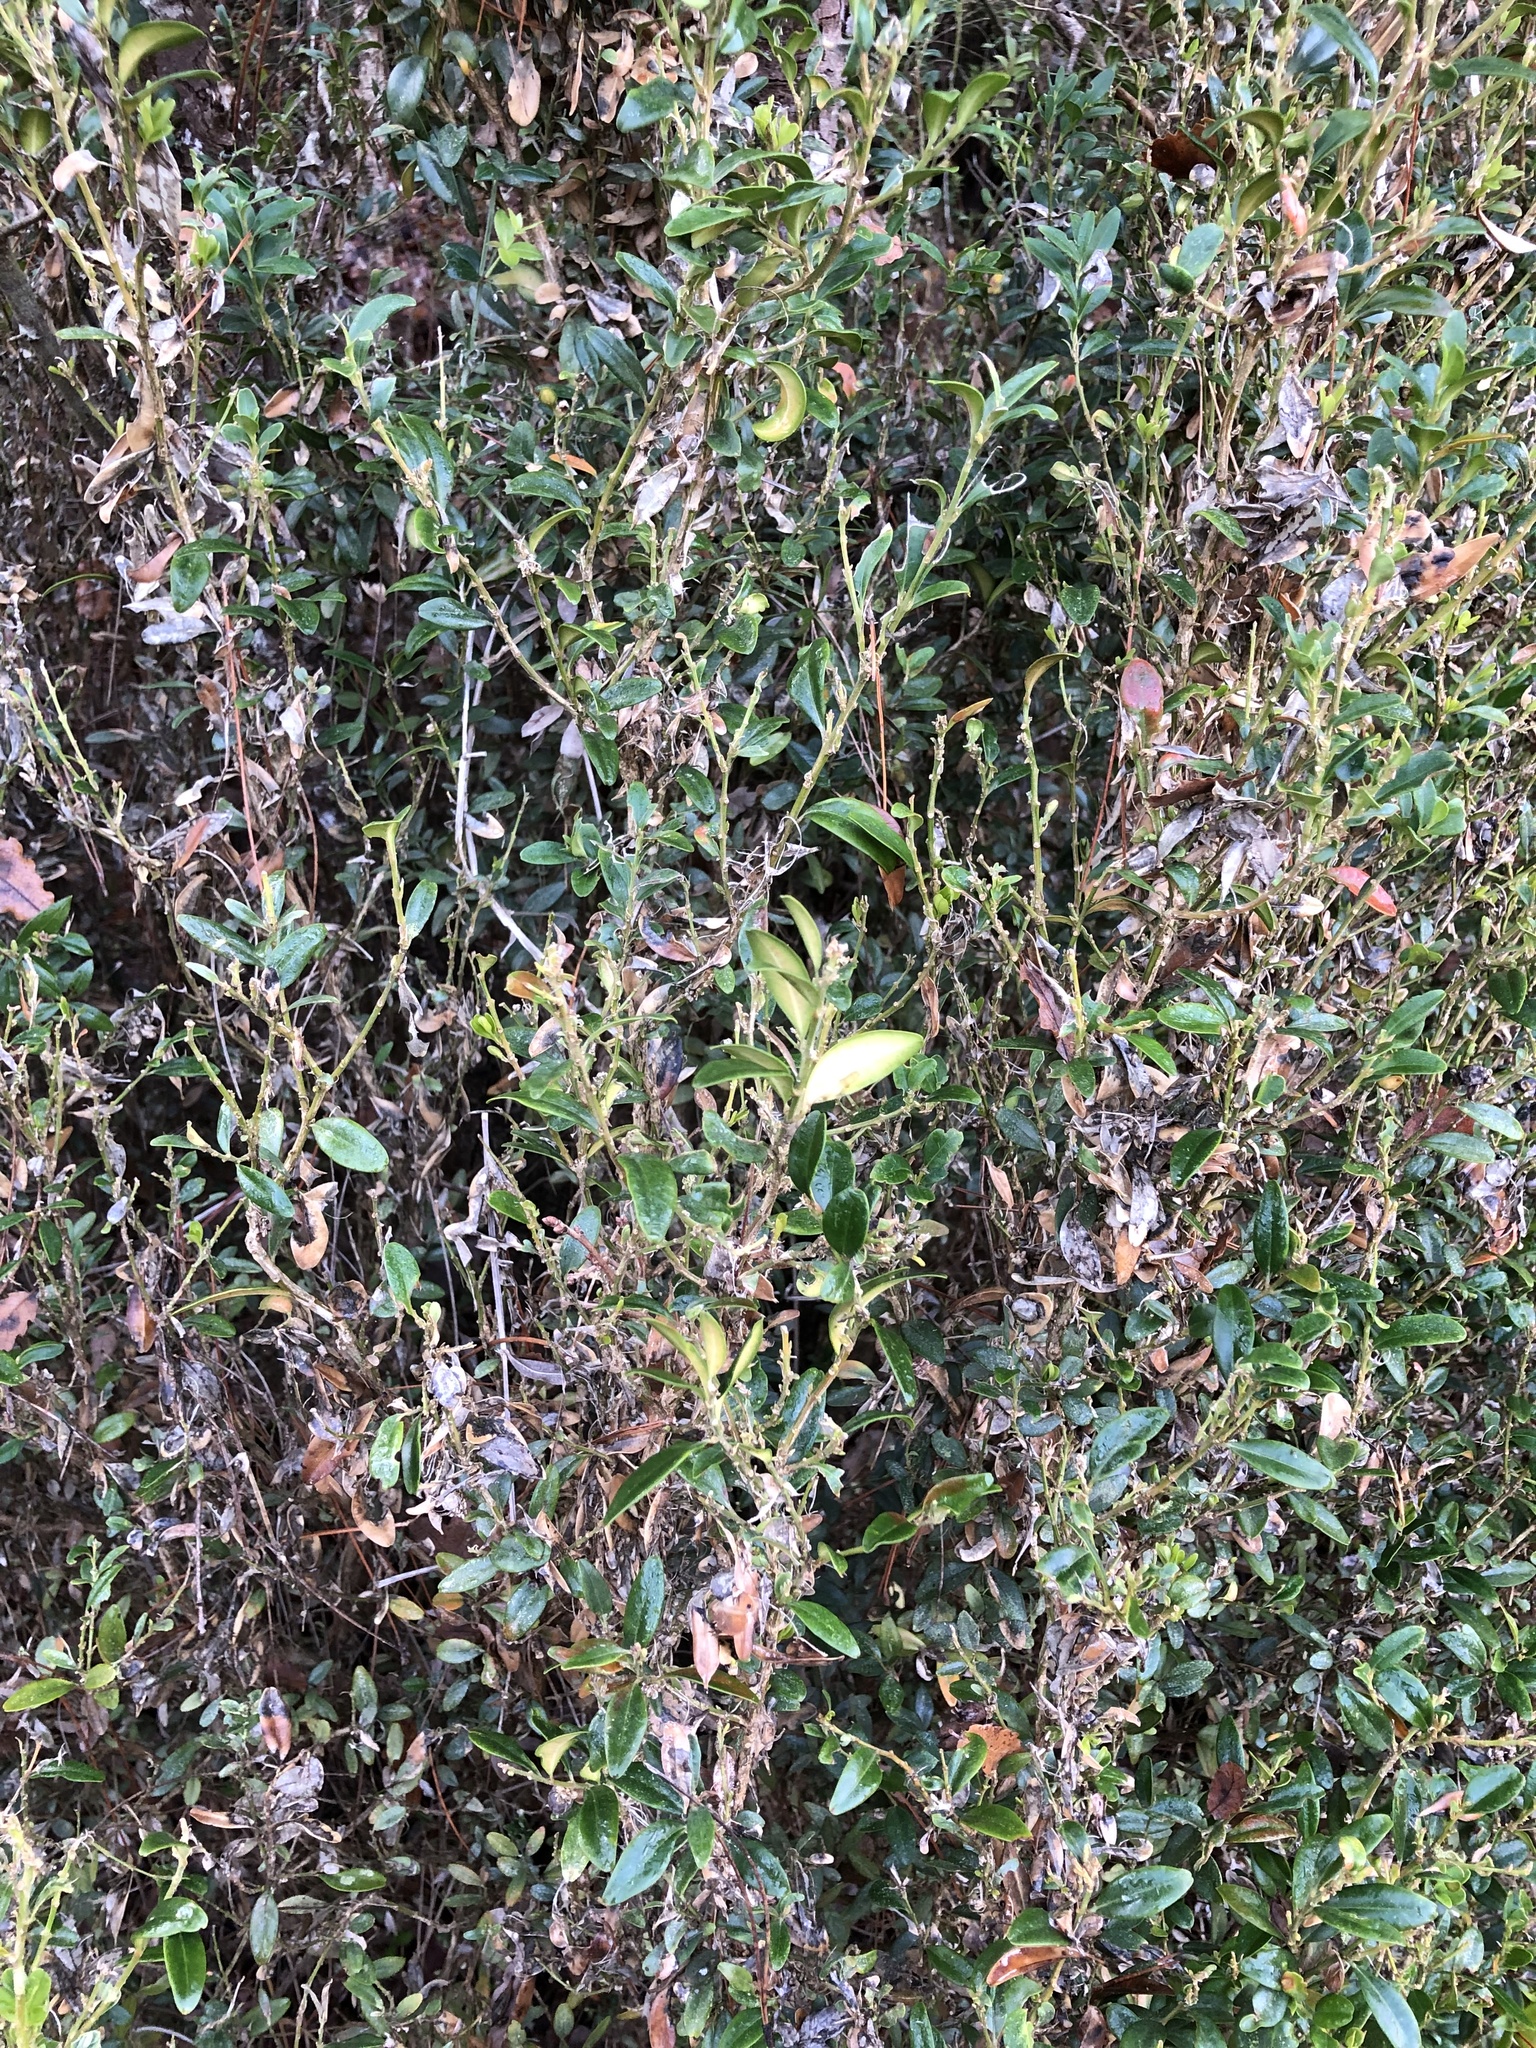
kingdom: Plantae
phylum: Tracheophyta
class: Magnoliopsida
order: Buxales
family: Buxaceae
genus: Buxus
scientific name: Buxus sempervirens
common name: Box
